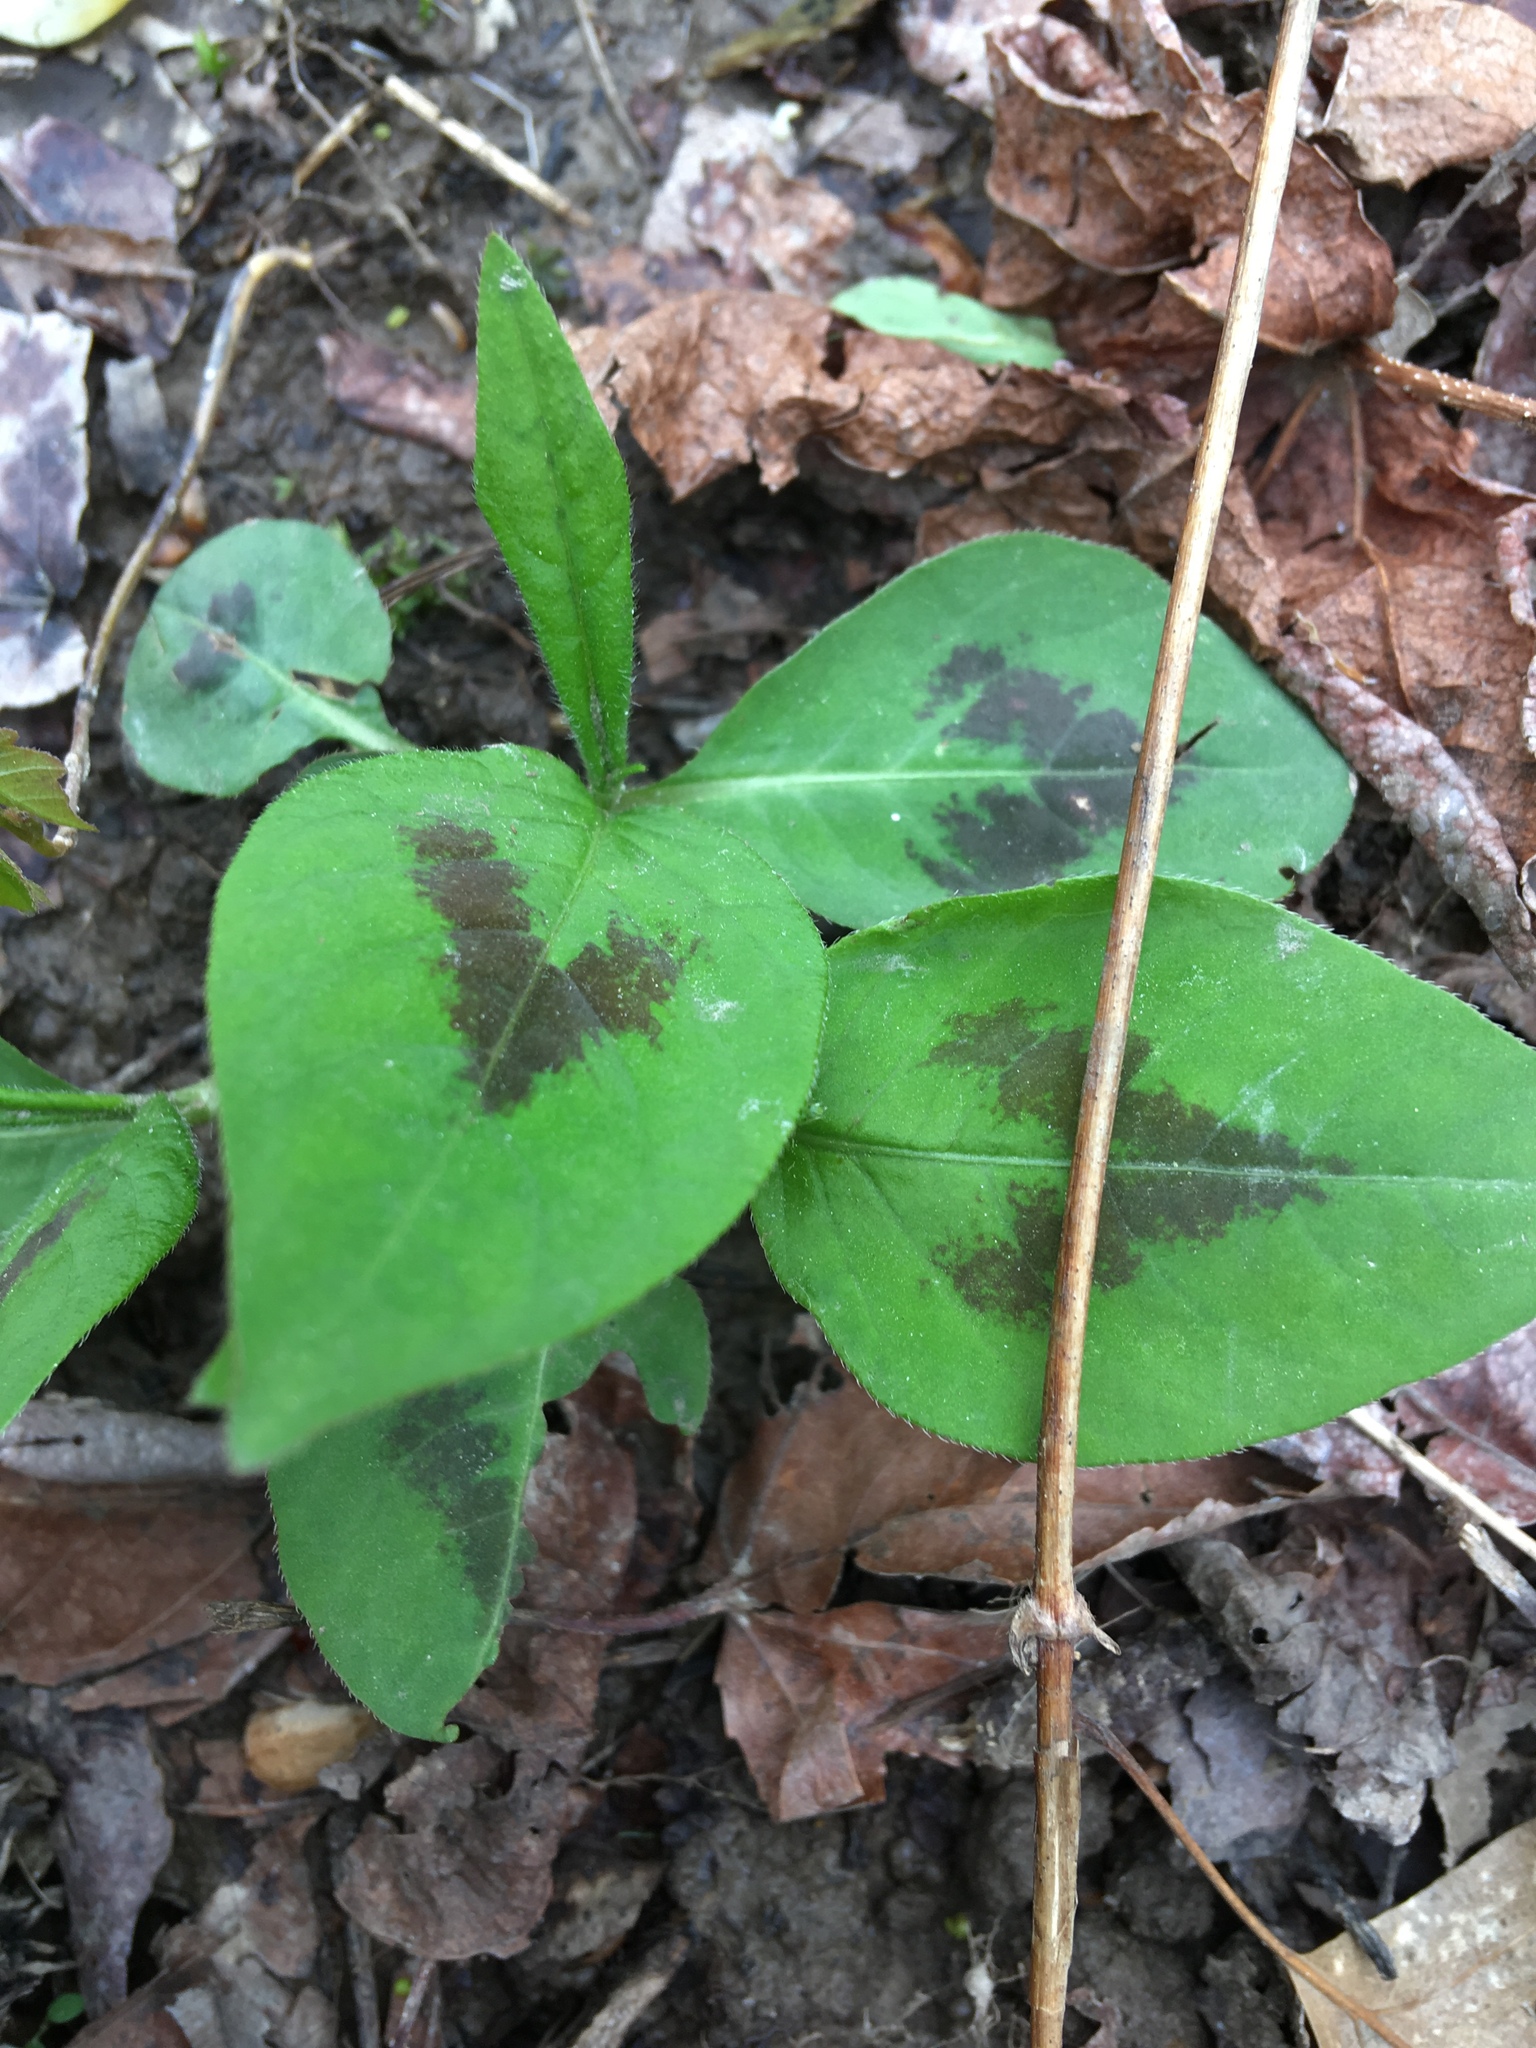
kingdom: Plantae
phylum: Tracheophyta
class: Magnoliopsida
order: Caryophyllales
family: Polygonaceae
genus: Persicaria
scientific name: Persicaria virginiana
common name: Jumpseed
